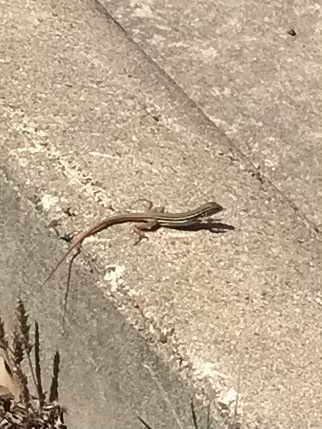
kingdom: Animalia
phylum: Chordata
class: Squamata
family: Teiidae
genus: Aspidoscelis
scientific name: Aspidoscelis gularis
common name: Eastern spotted whiptail
